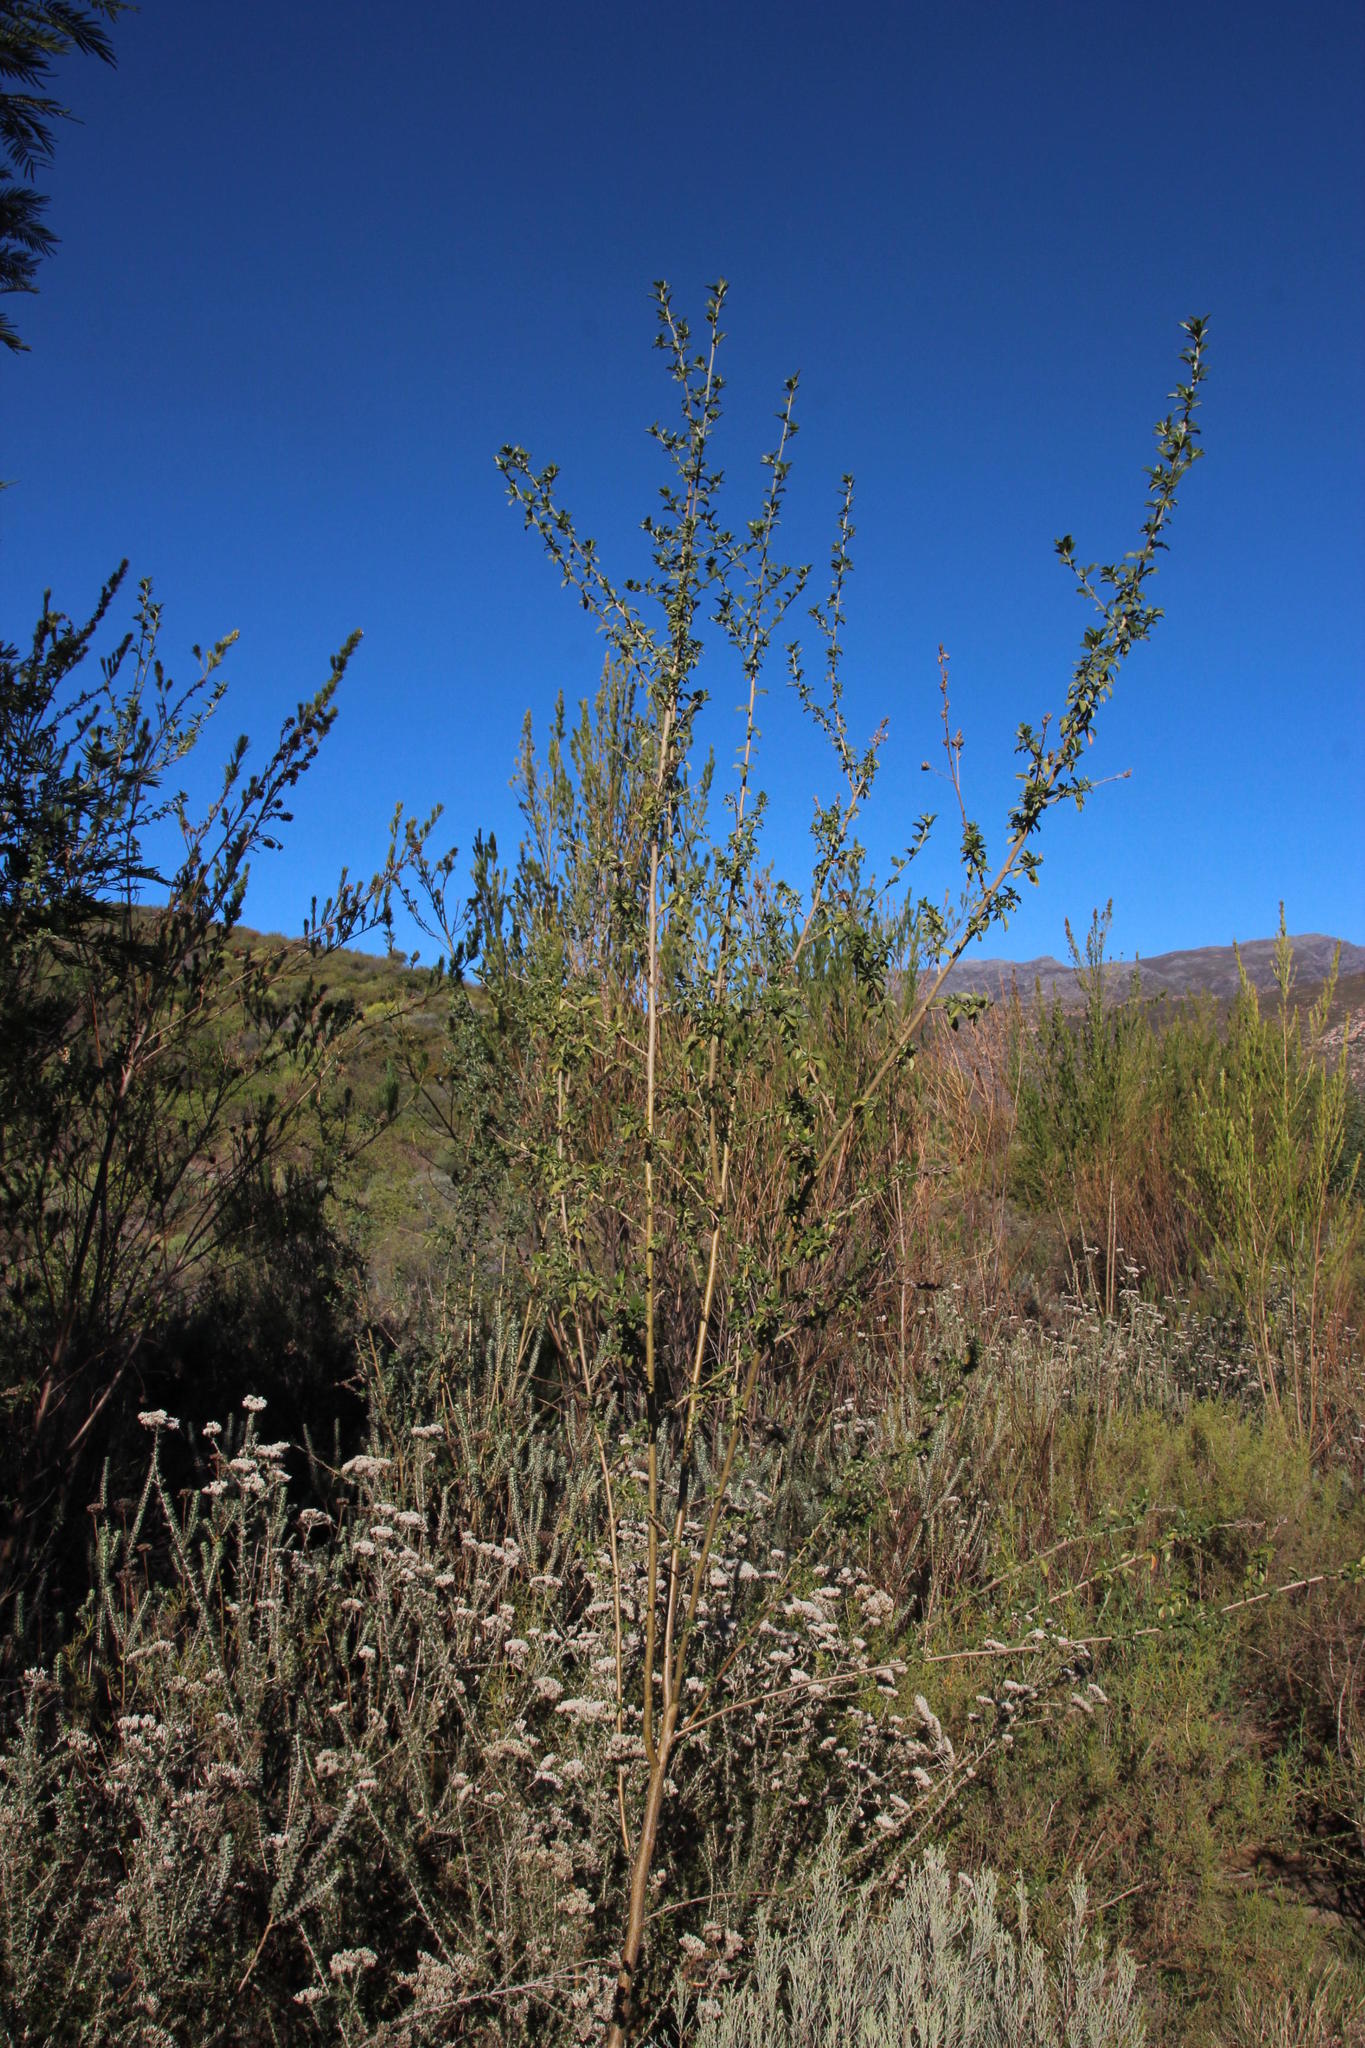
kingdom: Plantae
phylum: Tracheophyta
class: Magnoliopsida
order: Fabales
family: Fabaceae
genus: Psoralea
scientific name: Psoralea striata
